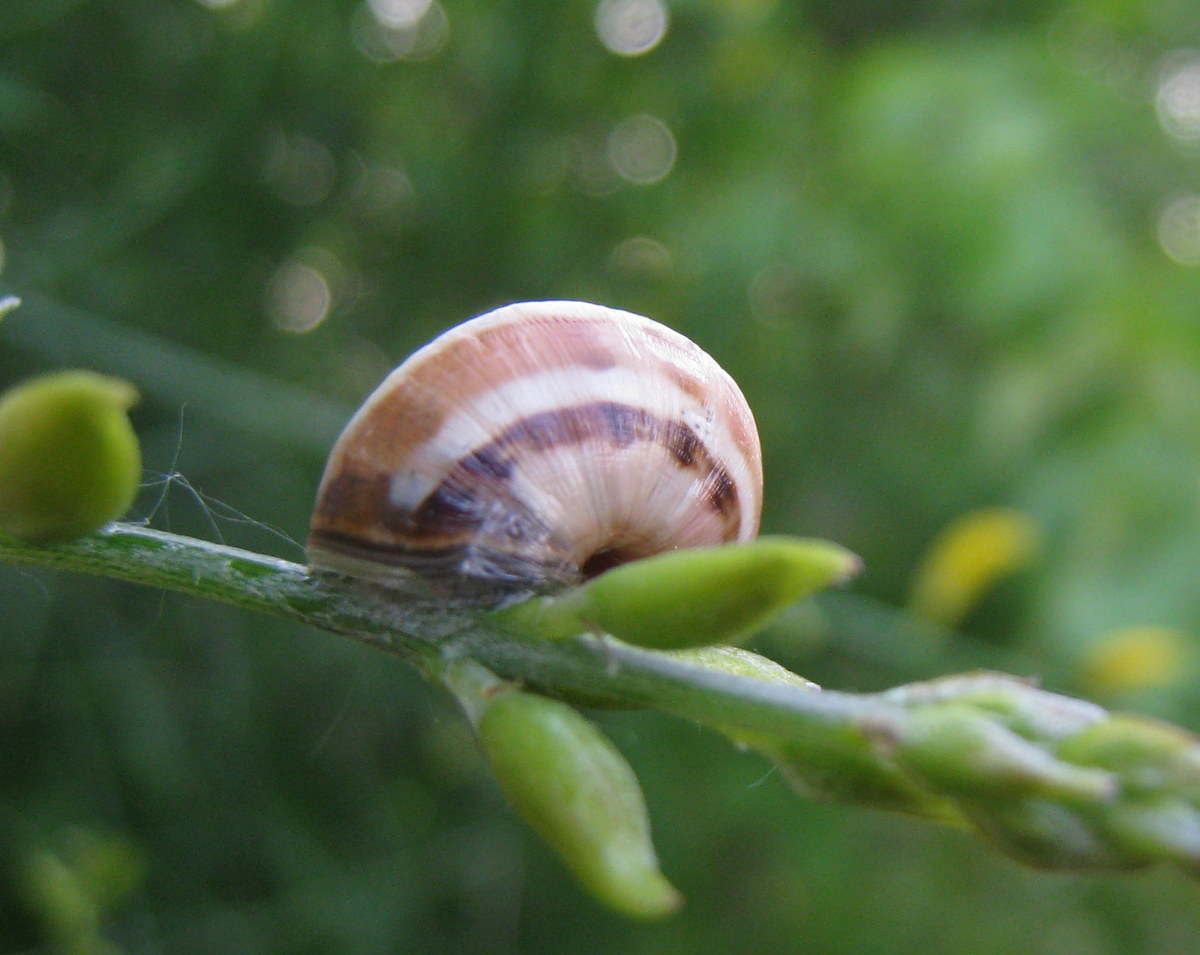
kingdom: Animalia
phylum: Mollusca
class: Gastropoda
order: Stylommatophora
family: Helicidae
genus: Theba
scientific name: Theba pisana
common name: White snail
